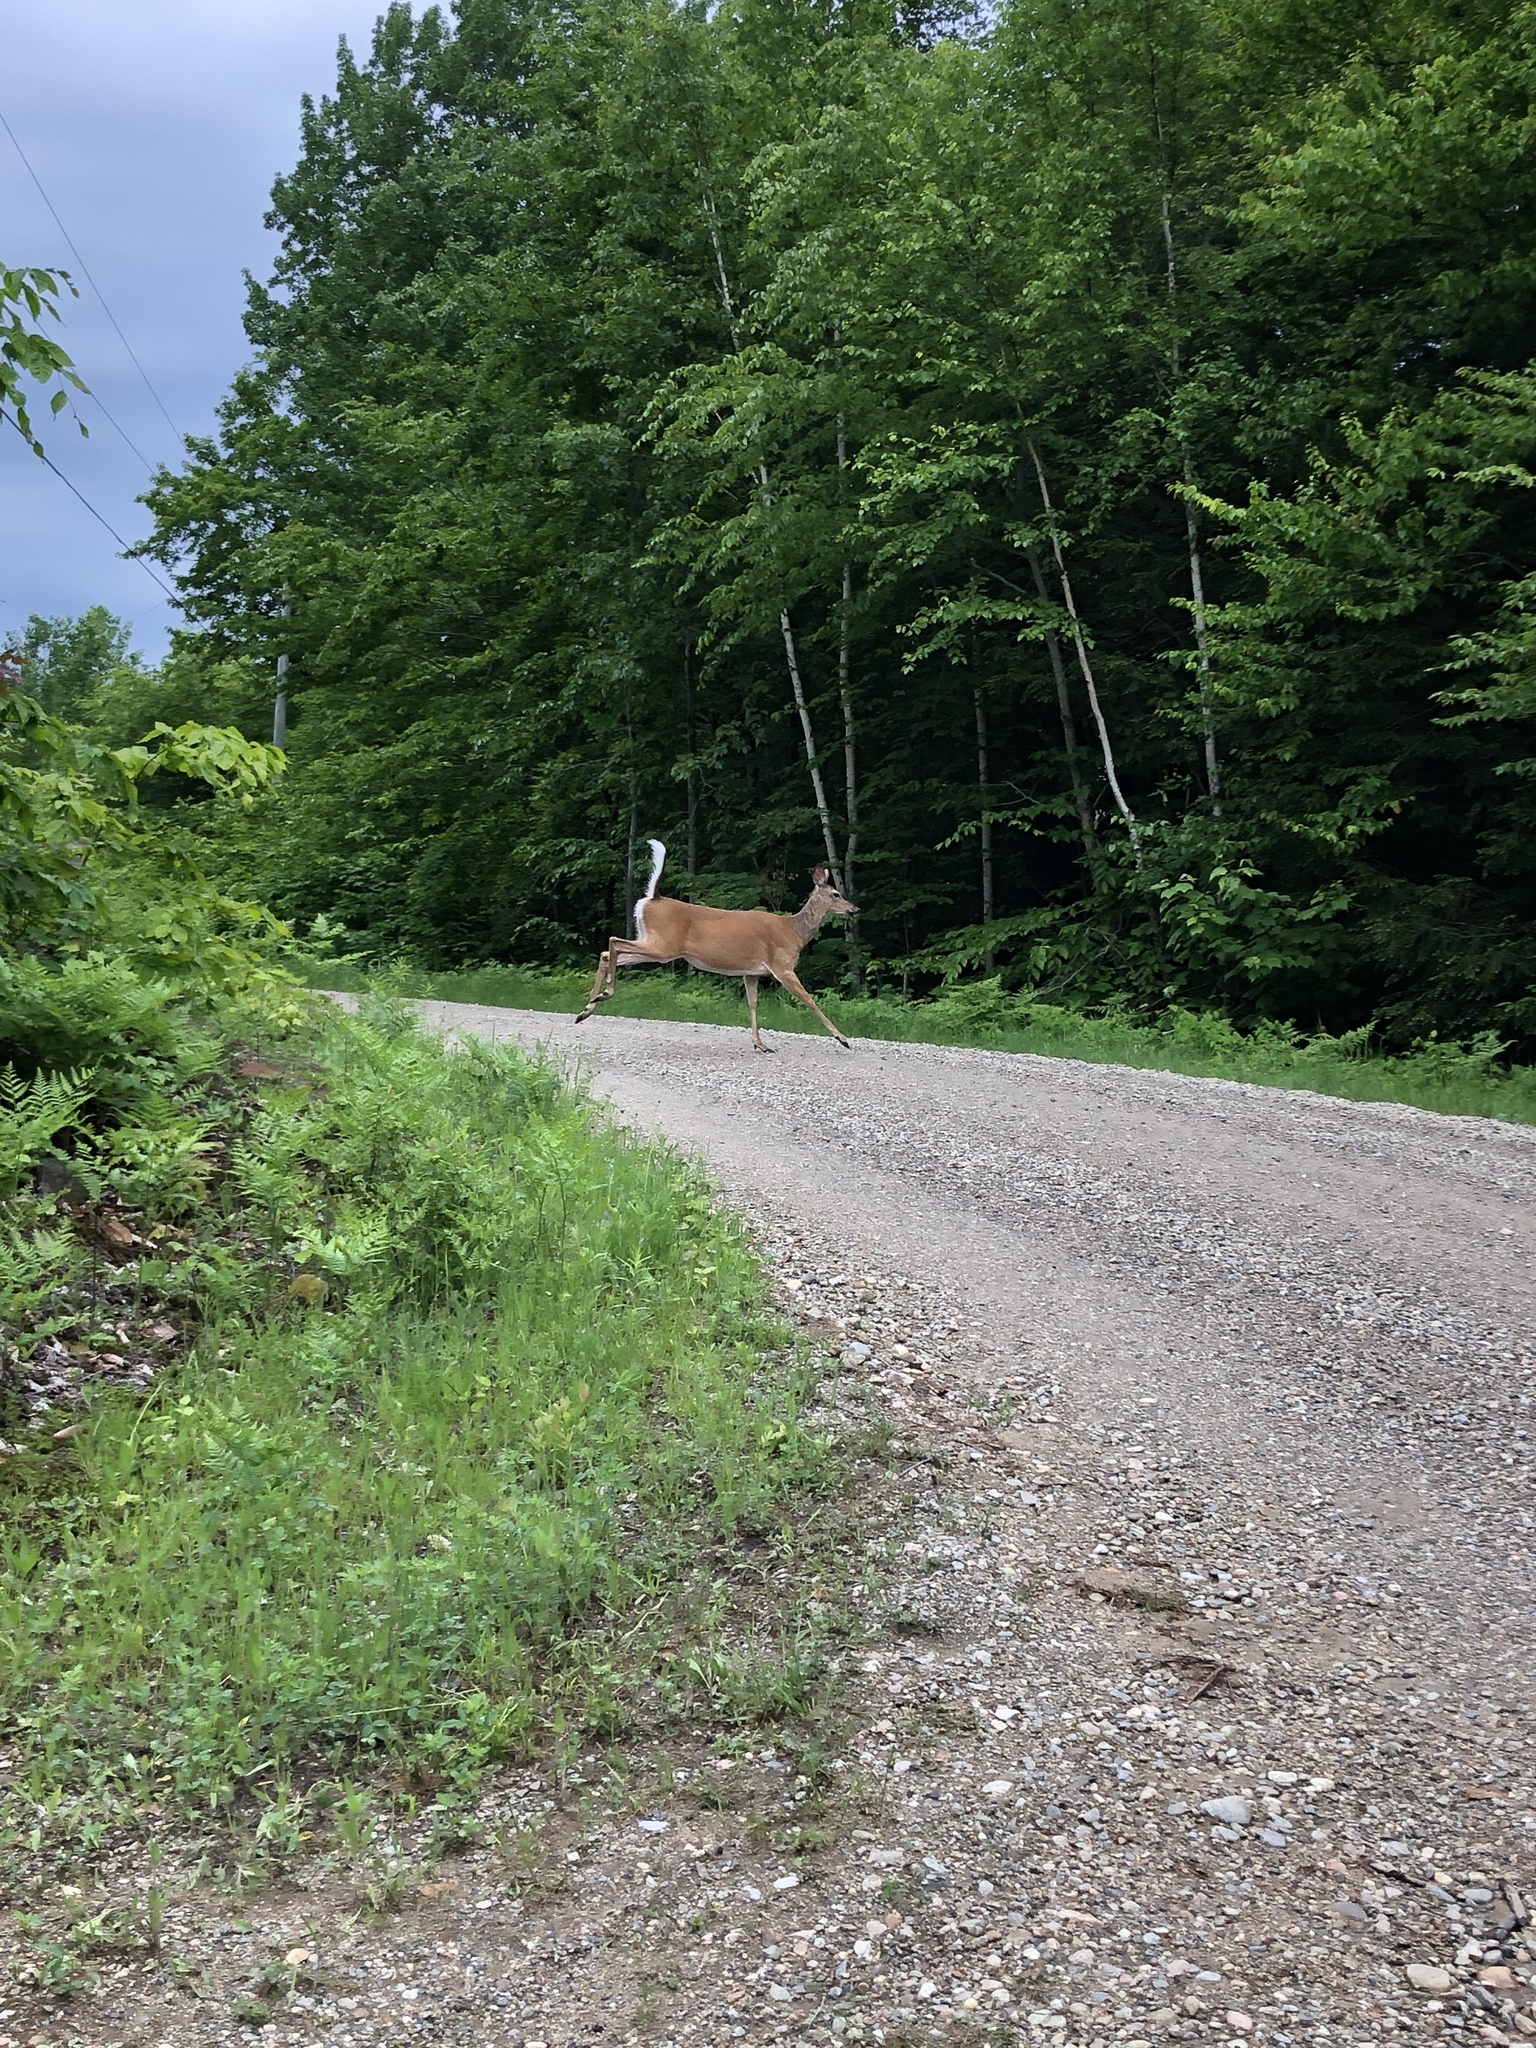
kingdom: Animalia
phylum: Chordata
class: Mammalia
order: Artiodactyla
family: Cervidae
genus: Odocoileus
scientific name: Odocoileus virginianus
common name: White-tailed deer
